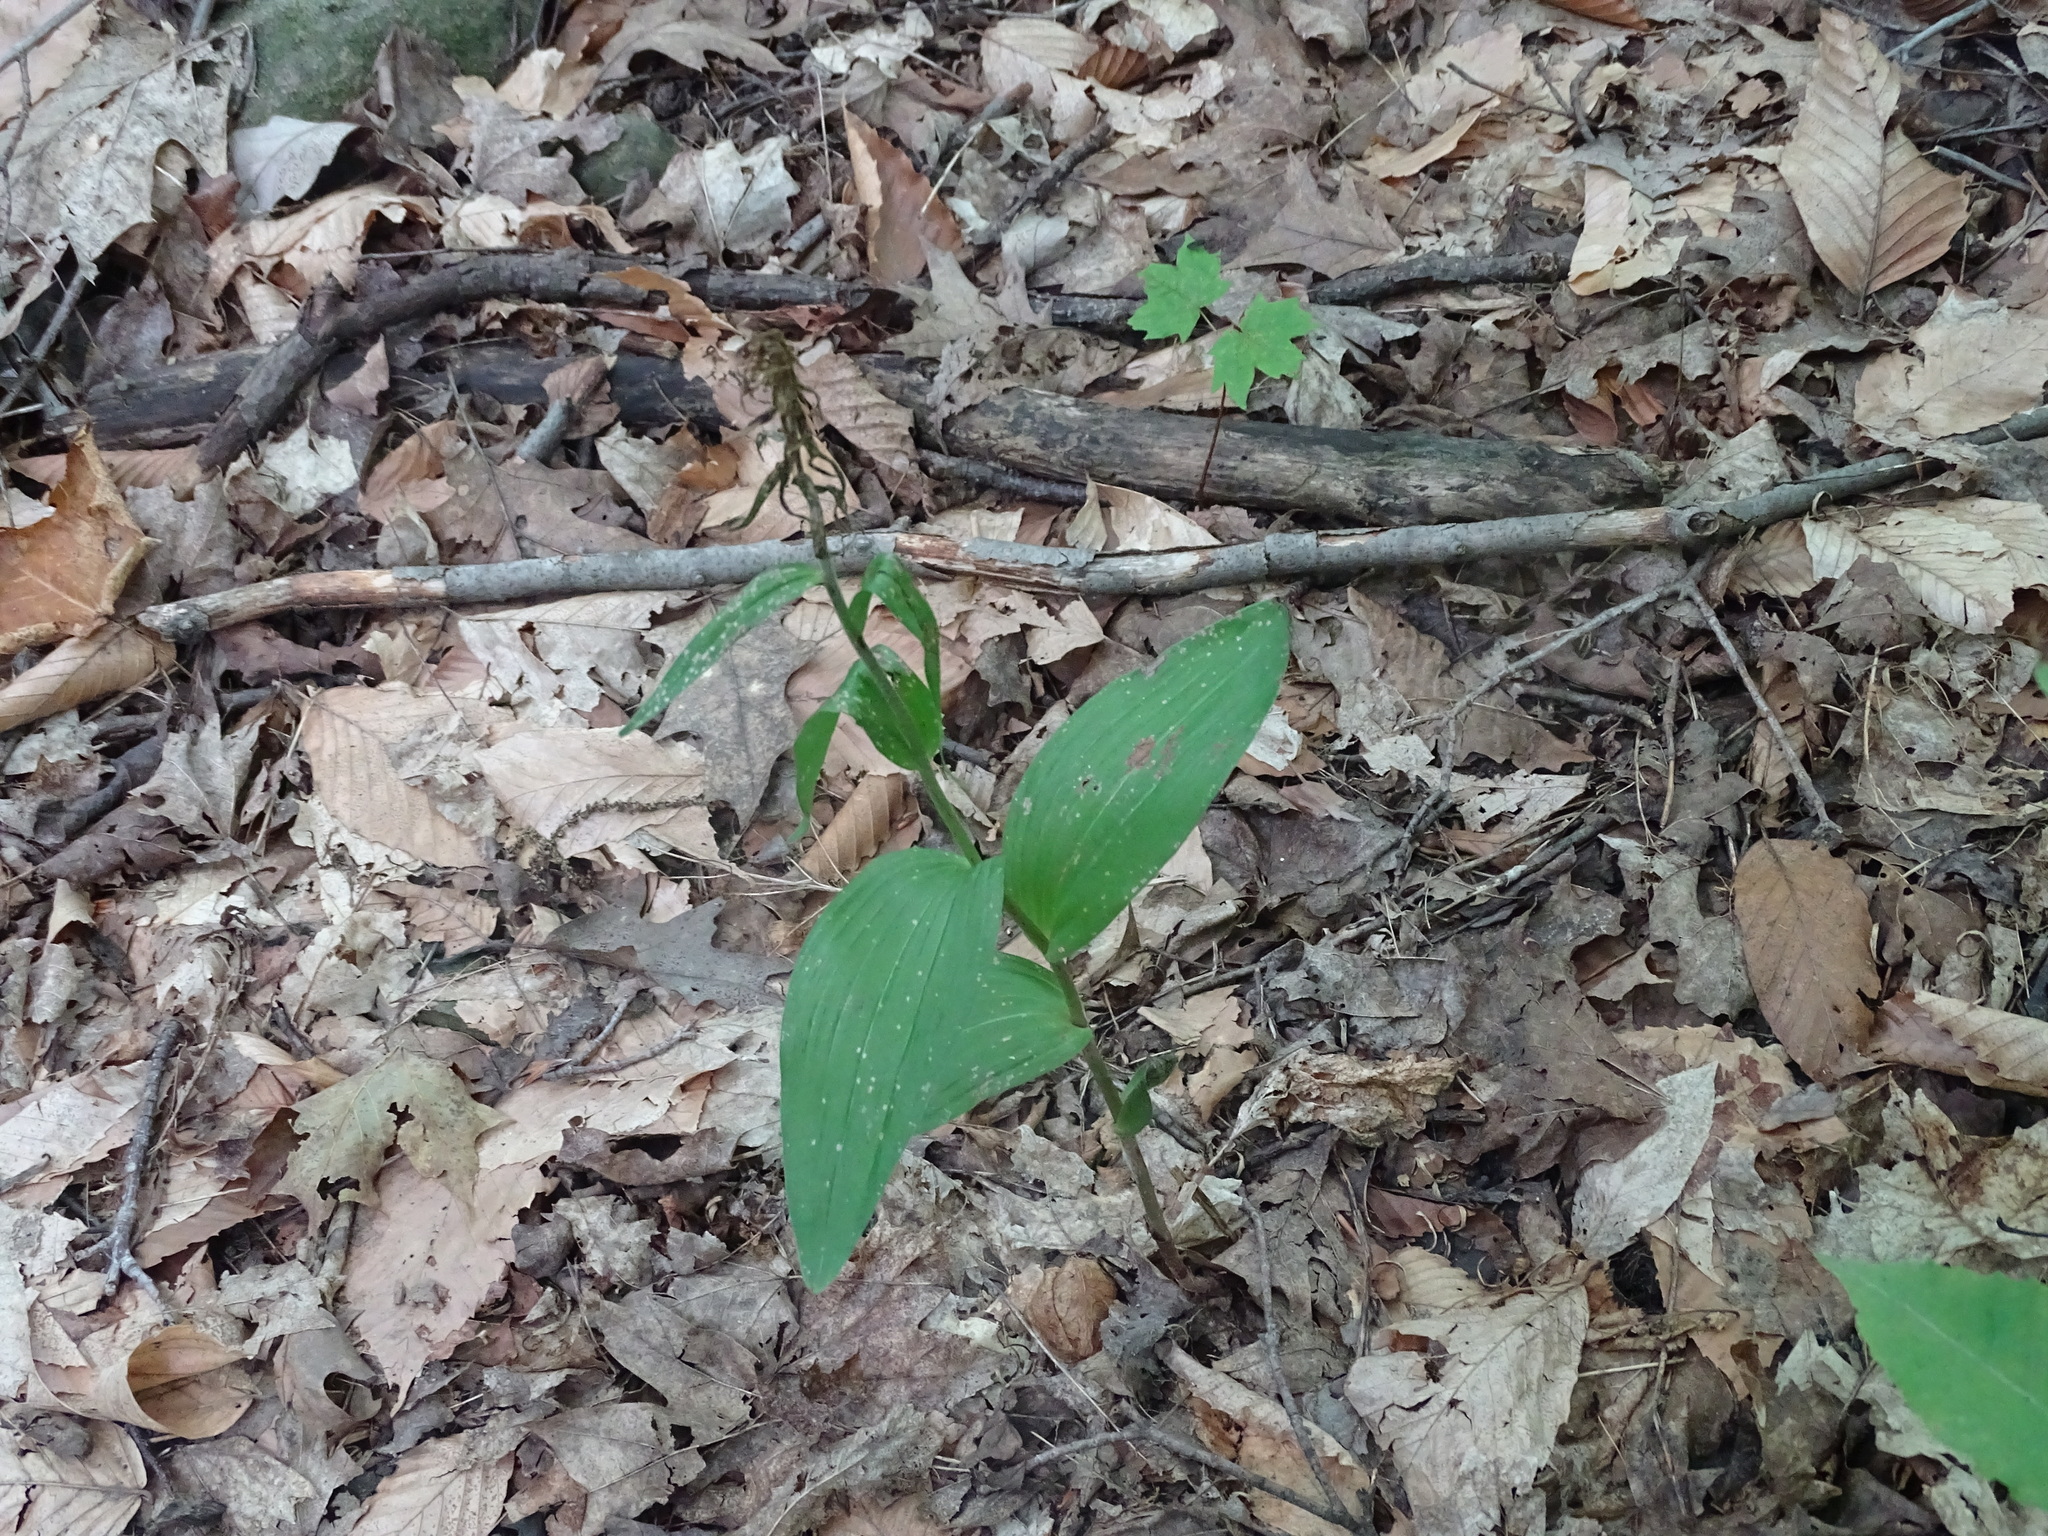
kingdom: Plantae
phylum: Tracheophyta
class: Liliopsida
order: Asparagales
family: Orchidaceae
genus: Epipactis
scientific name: Epipactis helleborine
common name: Broad-leaved helleborine
